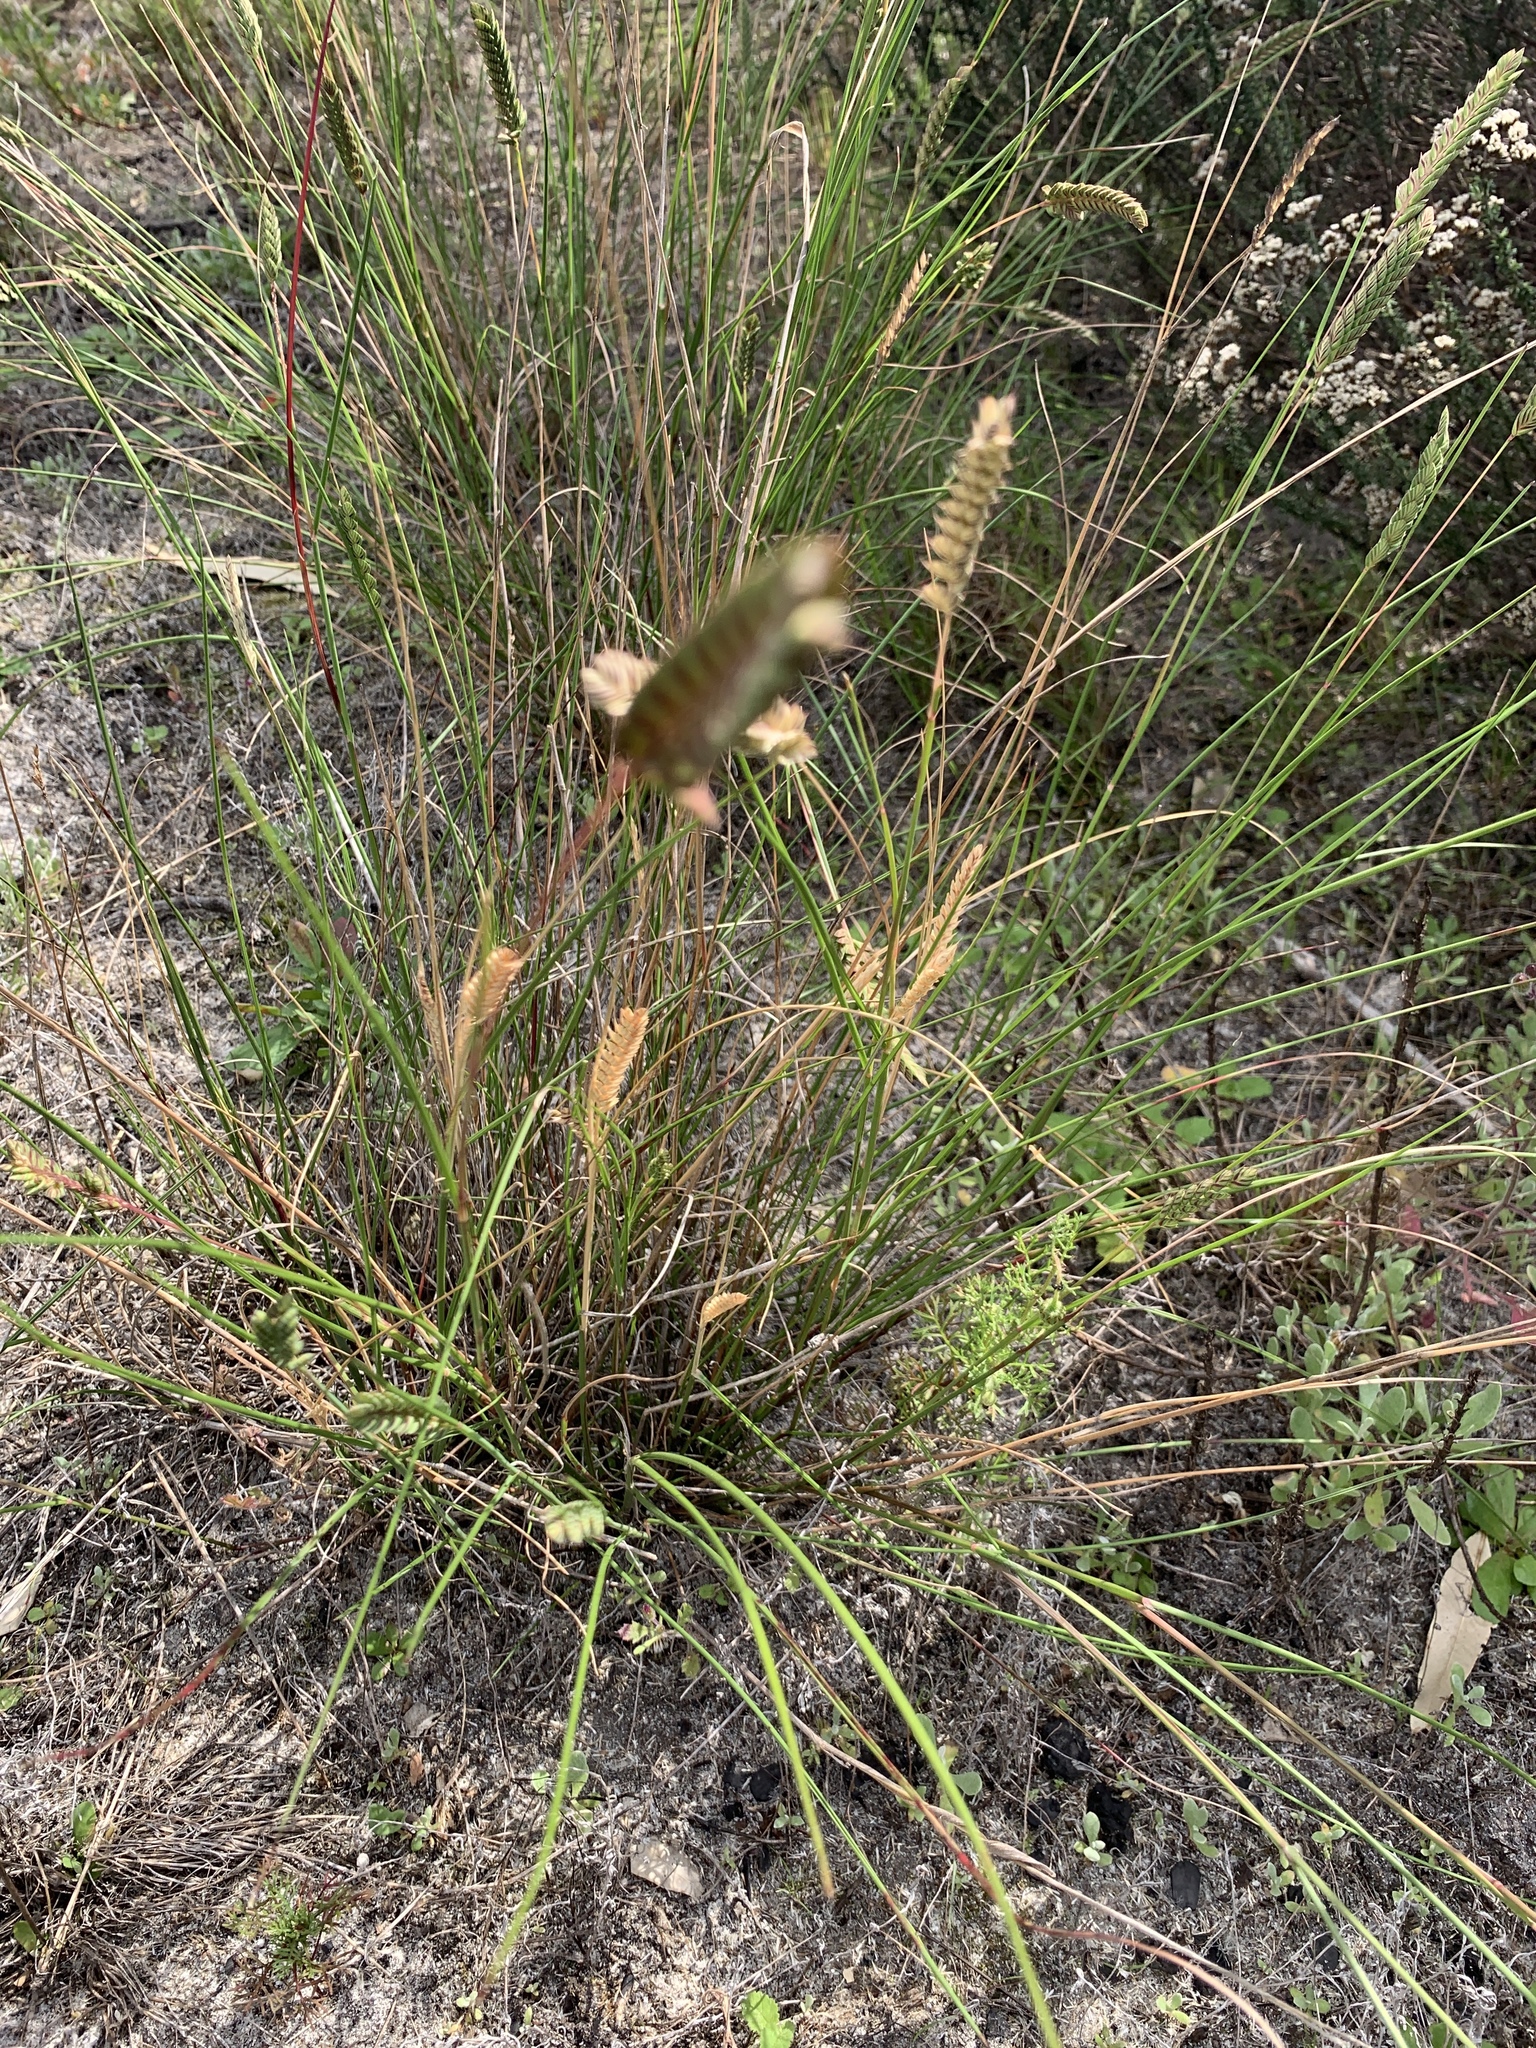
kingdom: Plantae
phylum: Tracheophyta
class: Liliopsida
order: Poales
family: Poaceae
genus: Tribolium
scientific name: Tribolium uniolae
